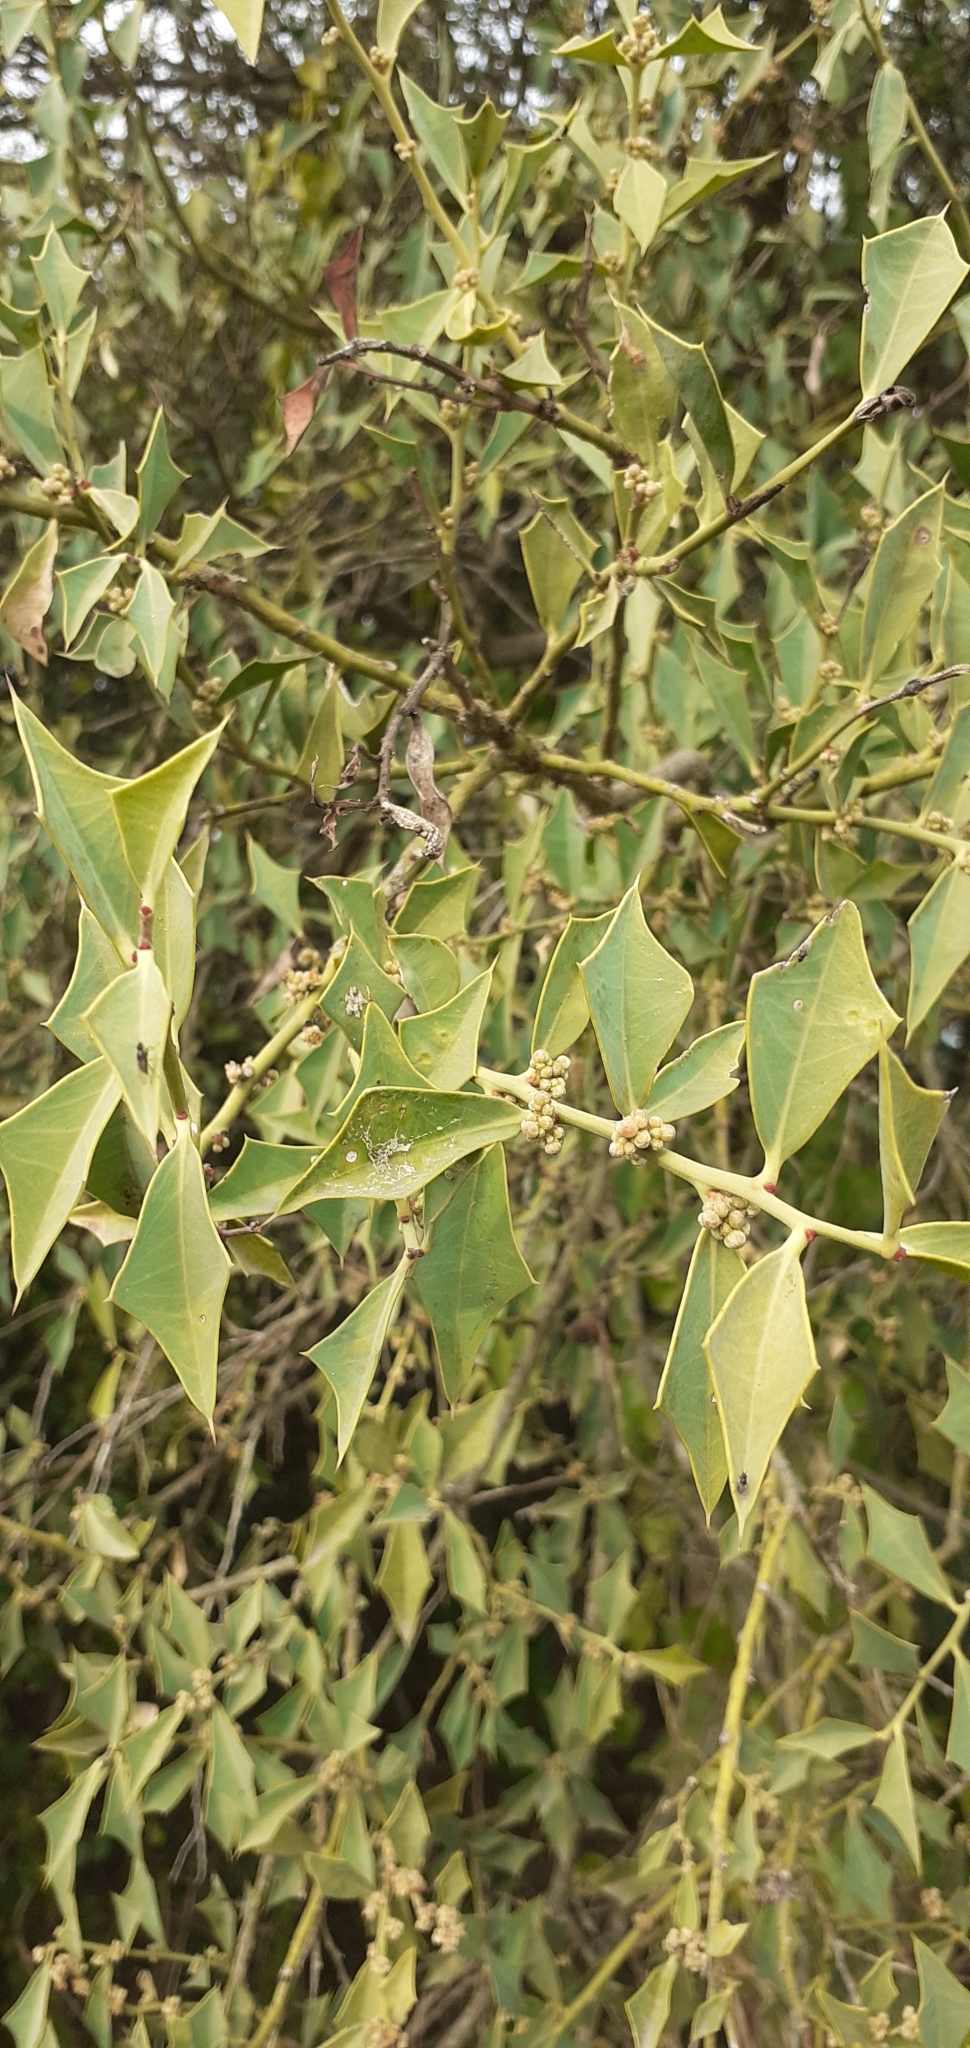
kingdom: Plantae
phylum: Tracheophyta
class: Magnoliopsida
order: Santalales
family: Cervantesiaceae
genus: Jodina
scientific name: Jodina rhombifolia
